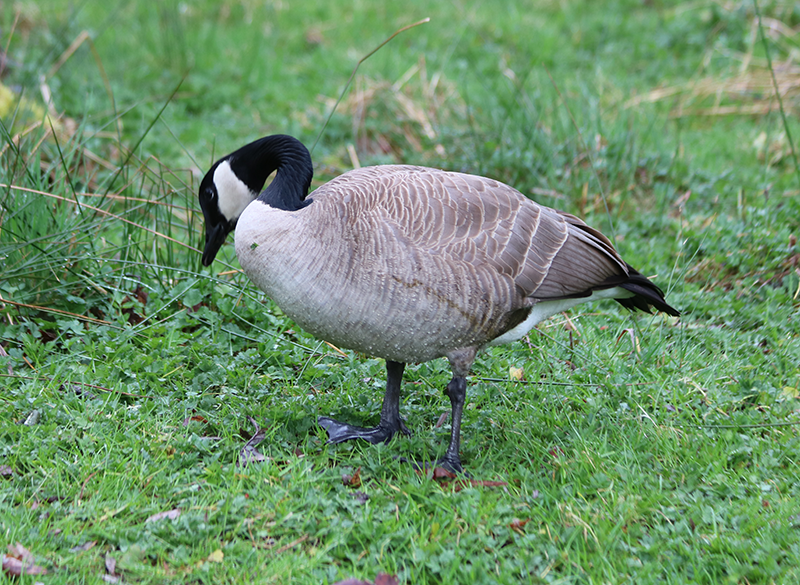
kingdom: Animalia
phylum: Chordata
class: Aves
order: Anseriformes
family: Anatidae
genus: Branta
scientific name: Branta canadensis
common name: Canada goose
